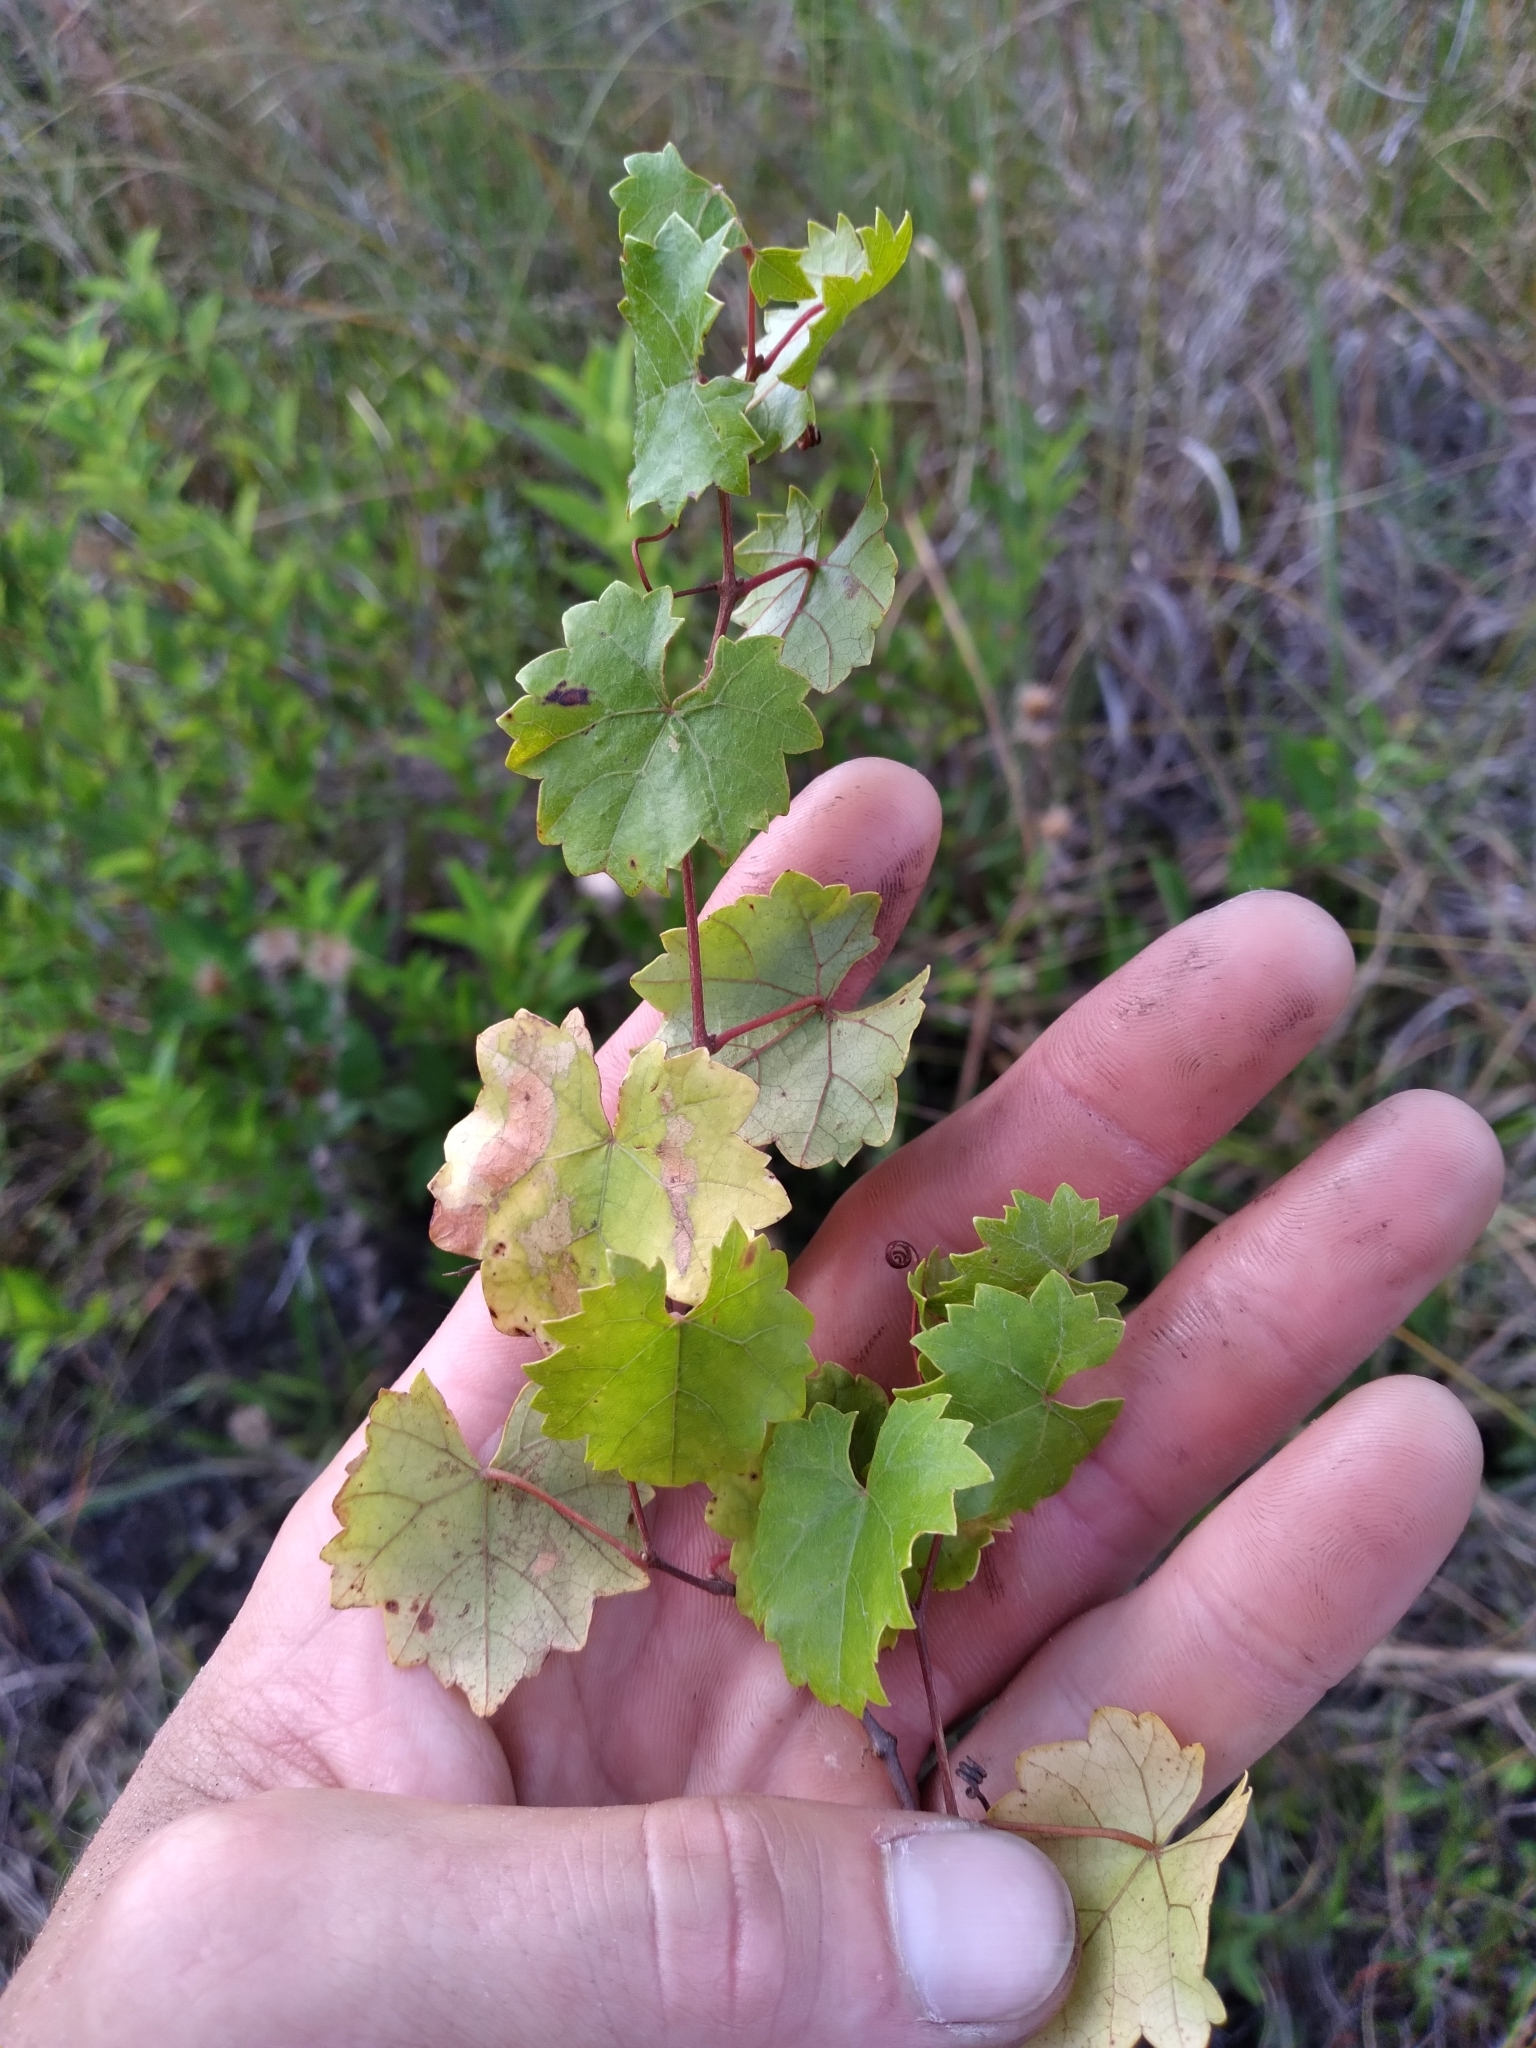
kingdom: Plantae
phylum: Tracheophyta
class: Magnoliopsida
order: Vitales
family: Vitaceae
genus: Vitis
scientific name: Vitis rotundifolia
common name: Muscadine grape
